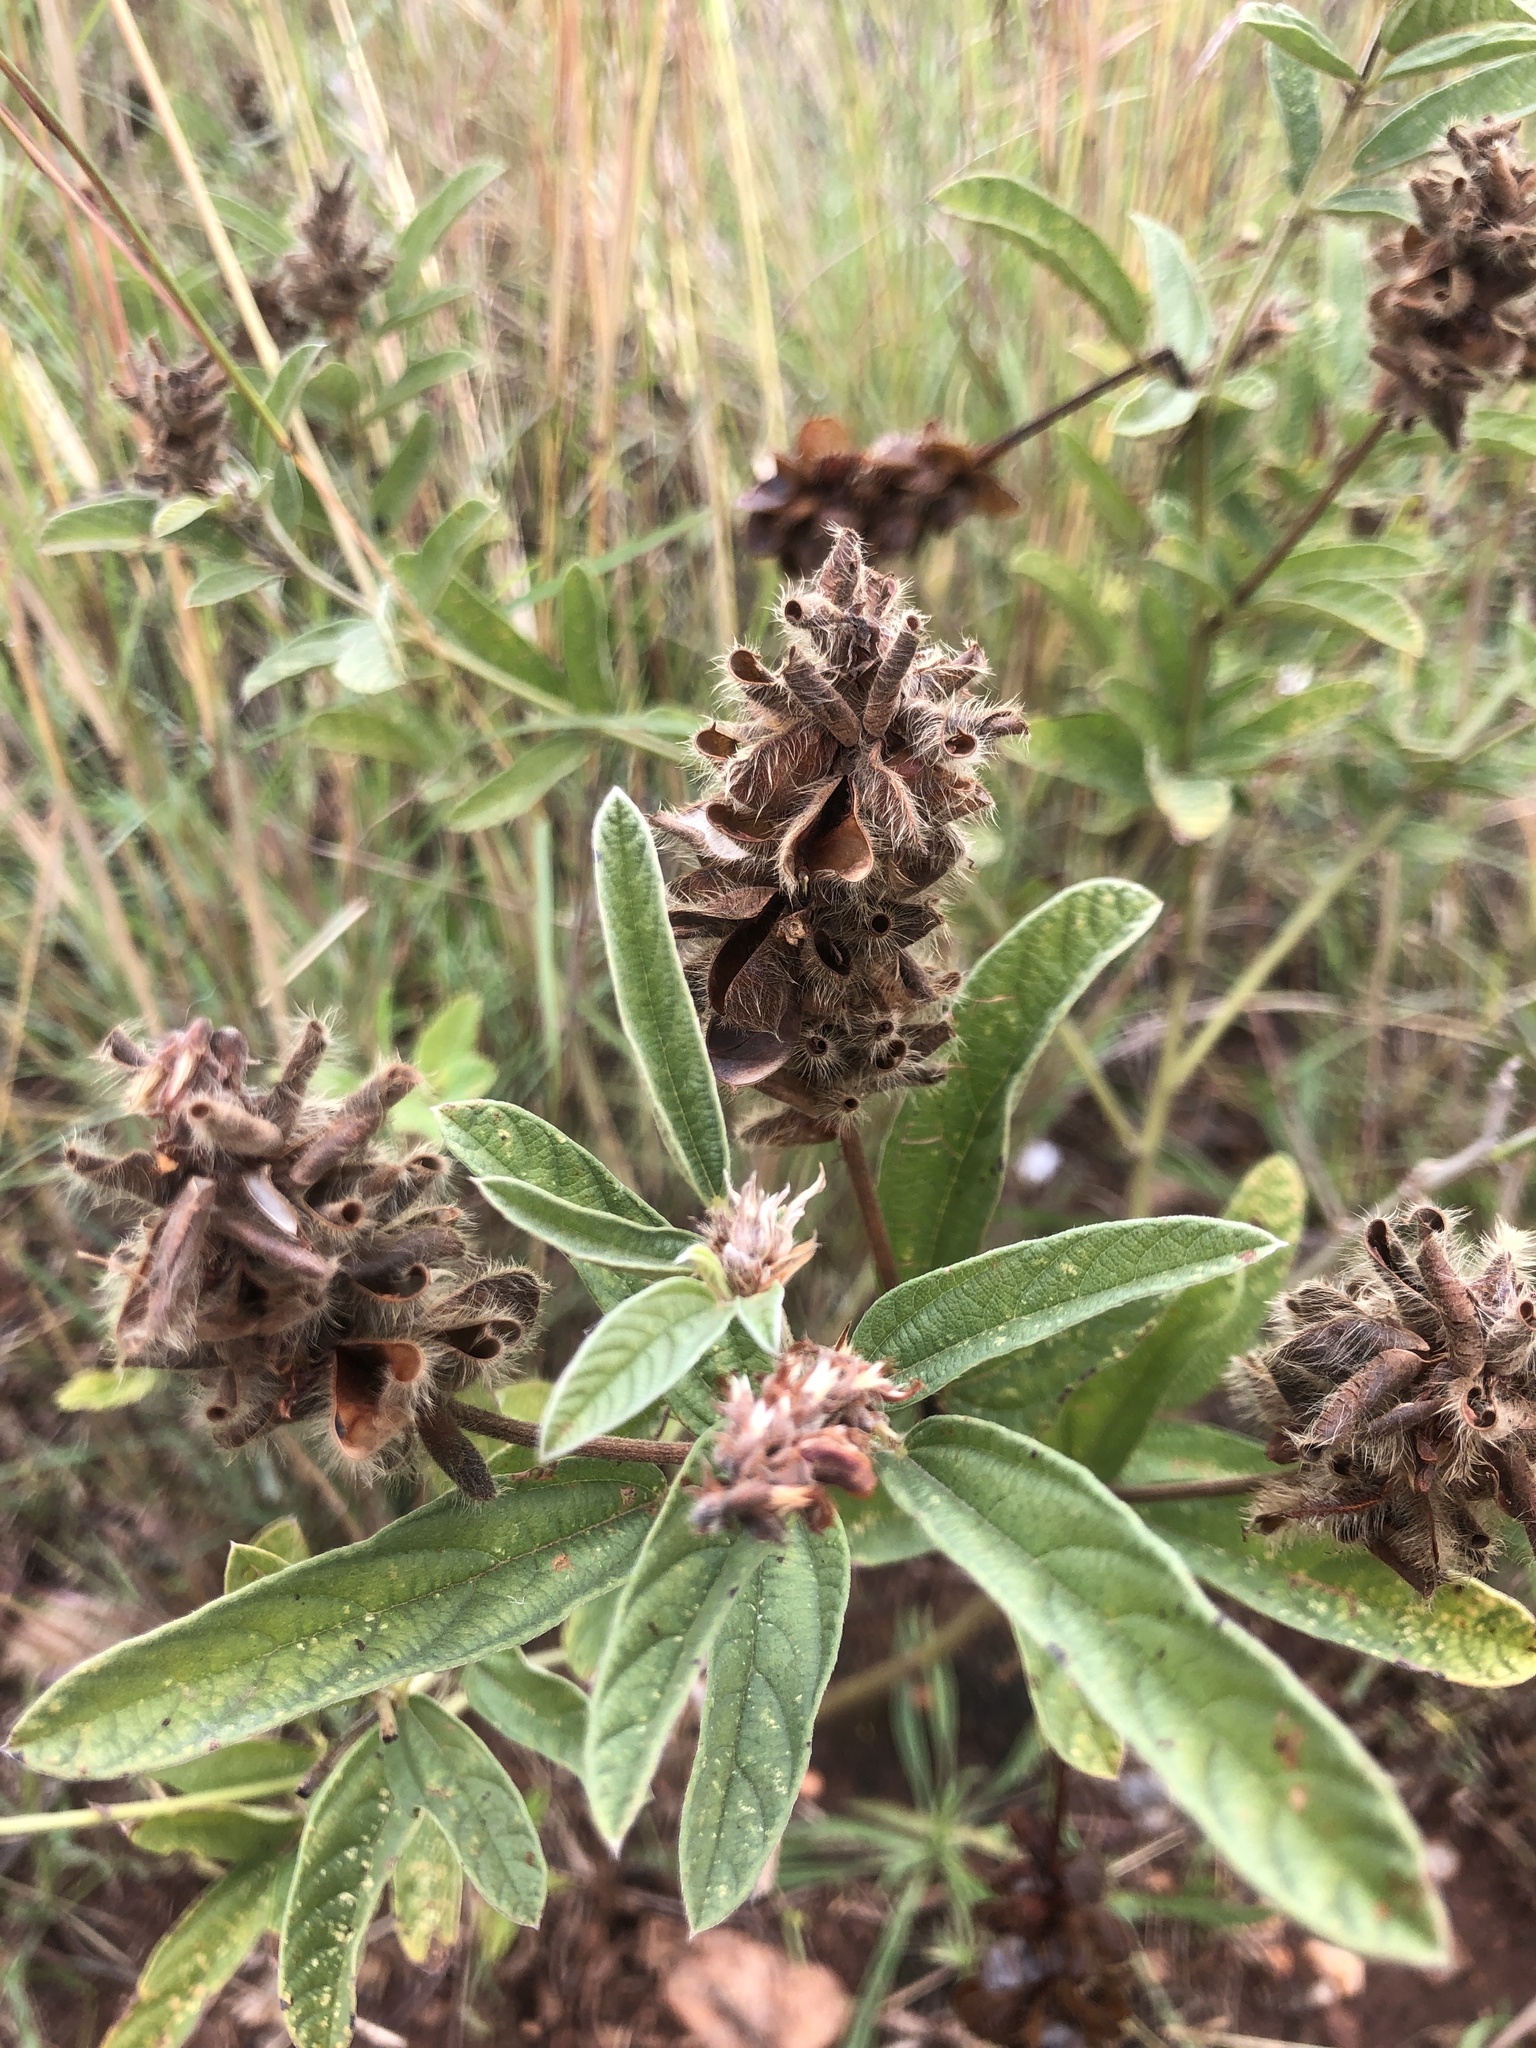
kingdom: Plantae
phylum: Tracheophyta
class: Magnoliopsida
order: Fabales
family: Fabaceae
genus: Eriosema
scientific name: Eriosema nutans
